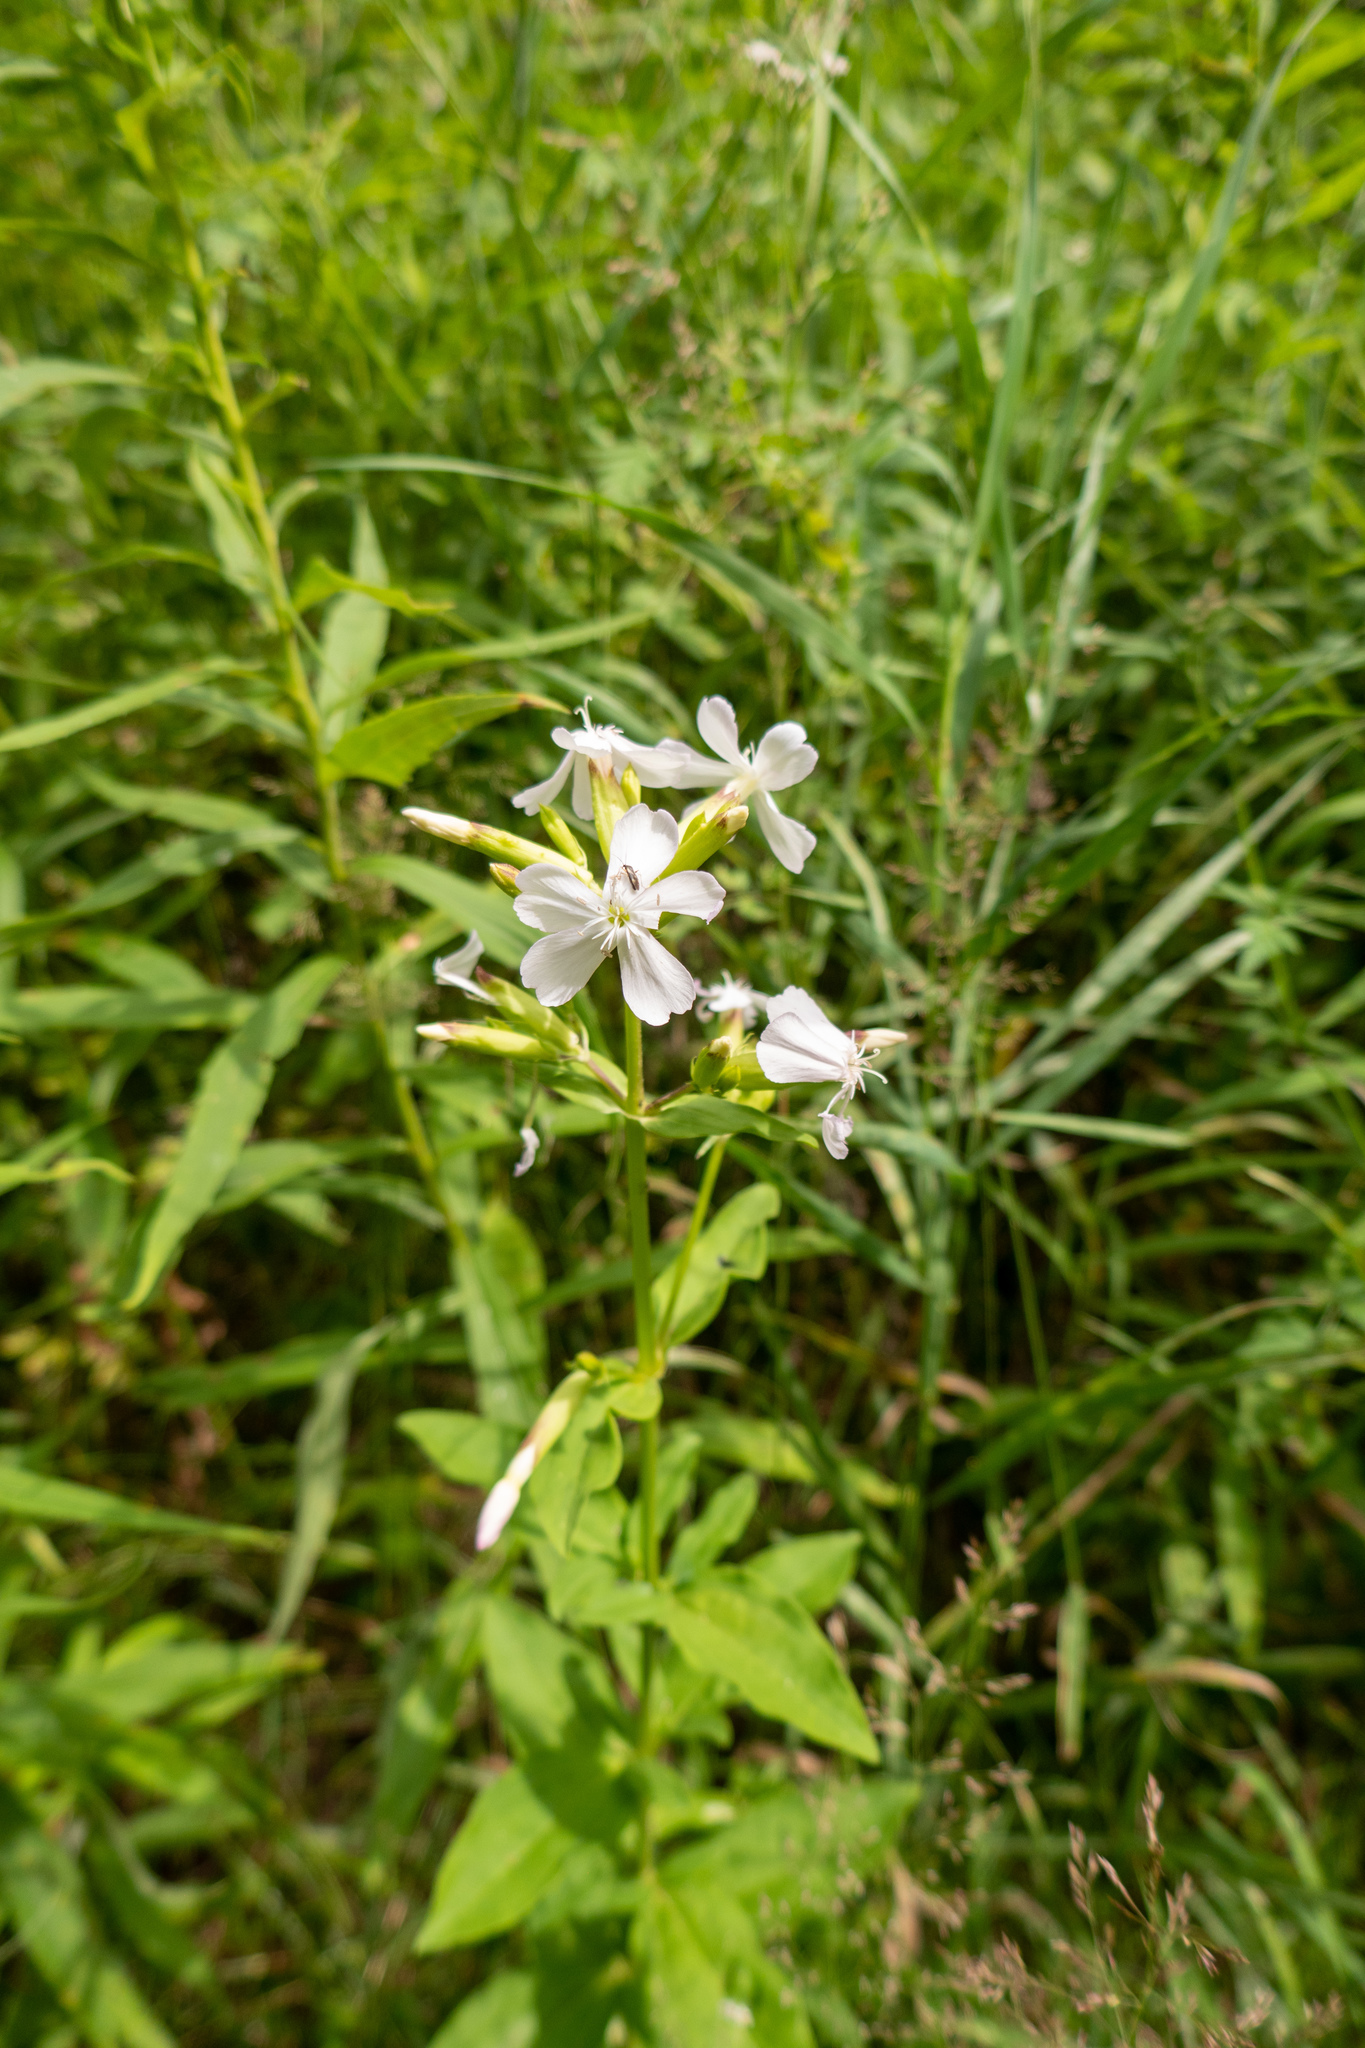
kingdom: Plantae
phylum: Tracheophyta
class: Magnoliopsida
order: Caryophyllales
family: Caryophyllaceae
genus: Saponaria
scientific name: Saponaria officinalis
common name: Soapwort
